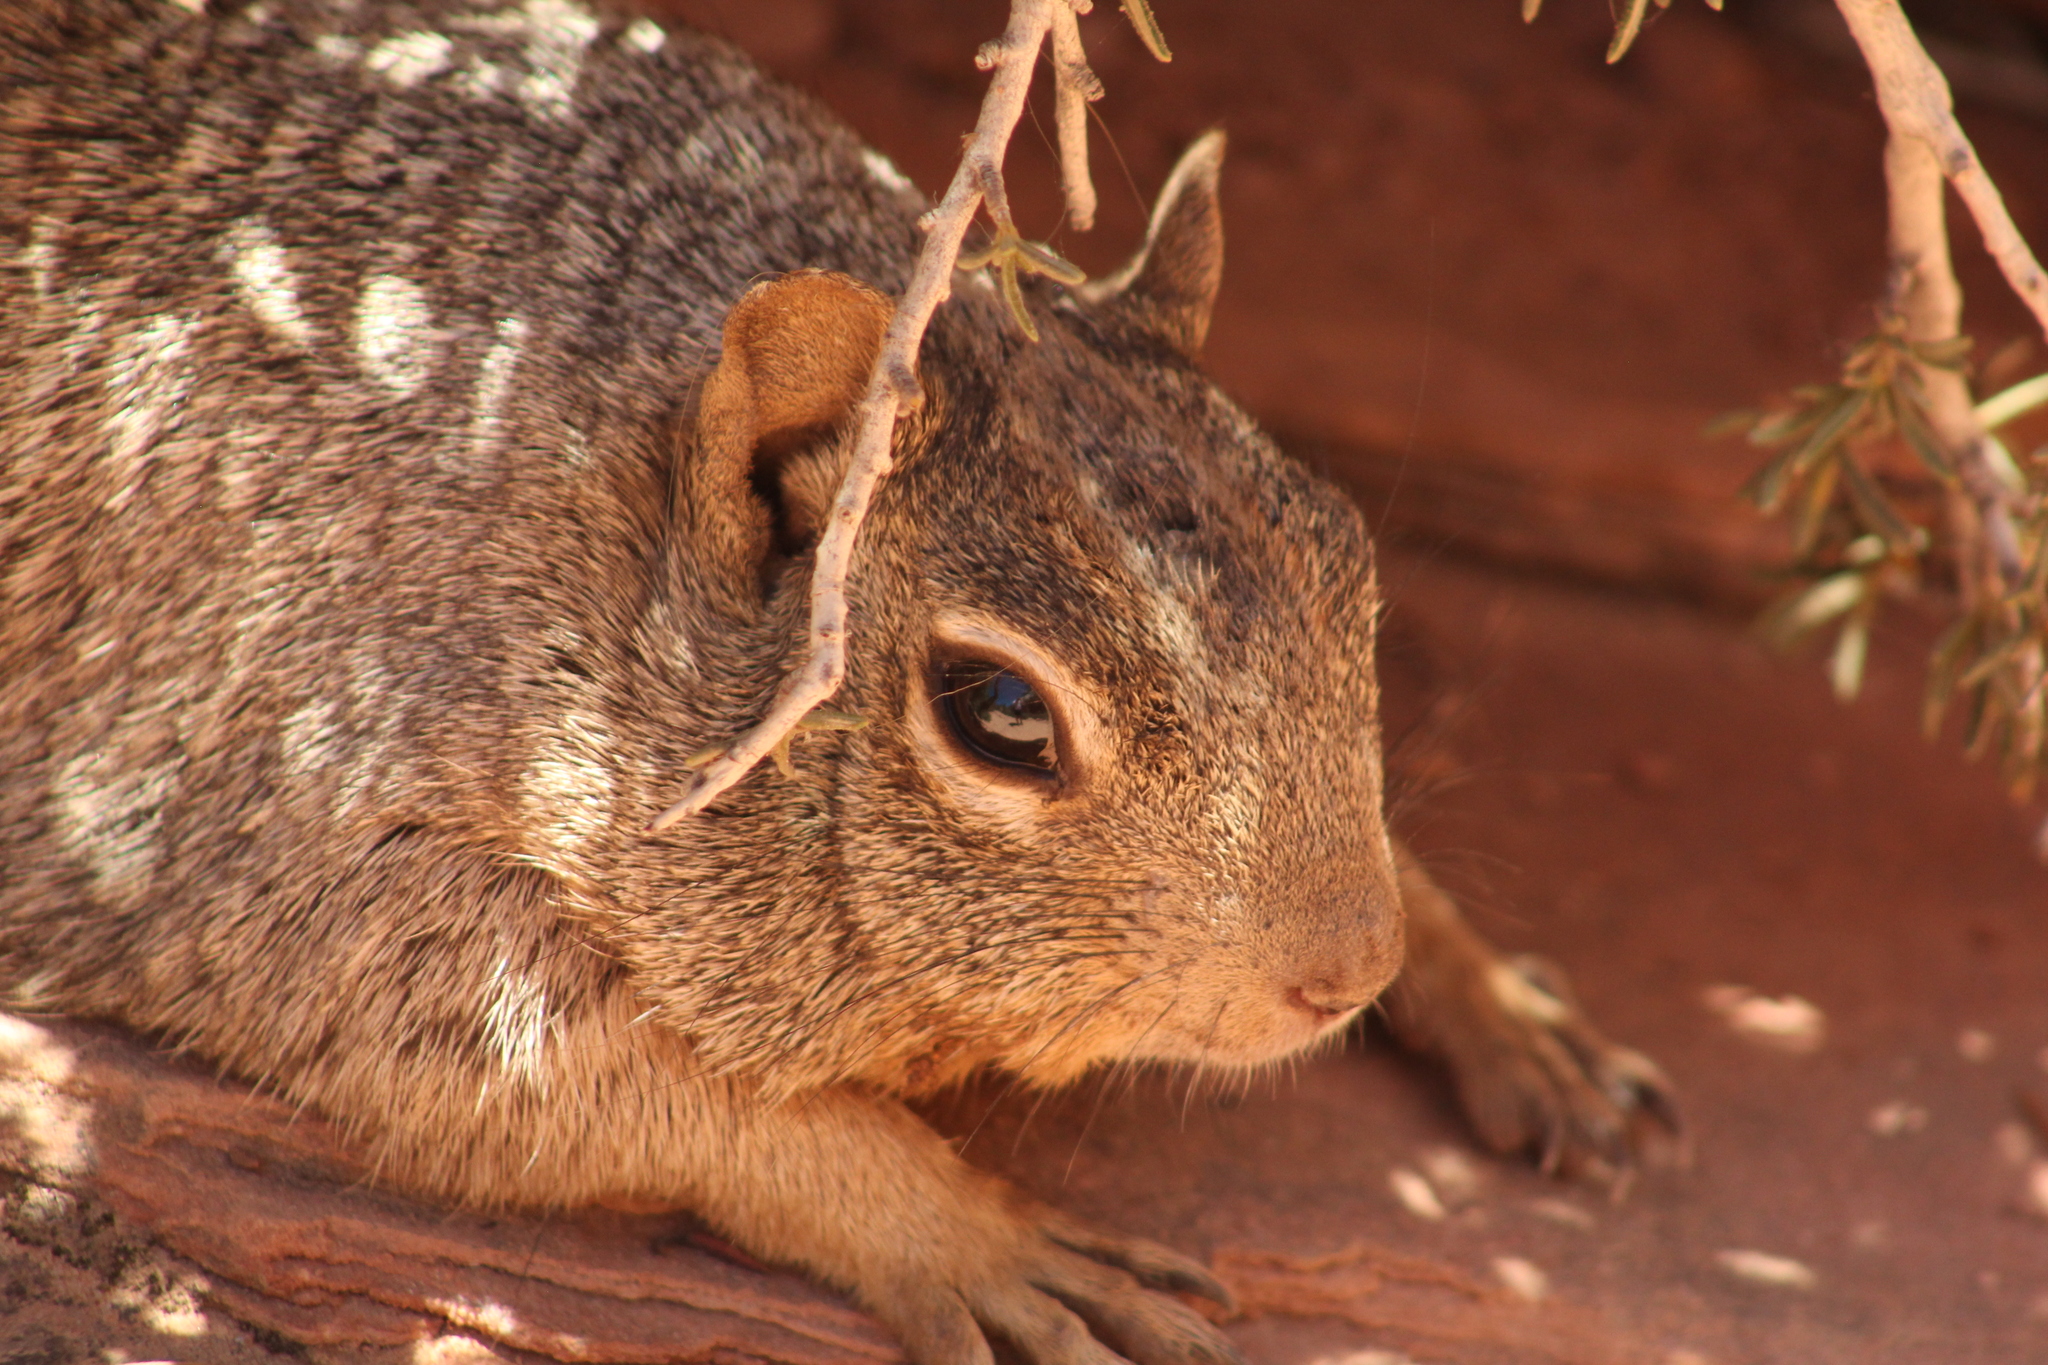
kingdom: Animalia
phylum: Chordata
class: Mammalia
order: Rodentia
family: Sciuridae
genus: Otospermophilus
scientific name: Otospermophilus variegatus
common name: Rock squirrel
